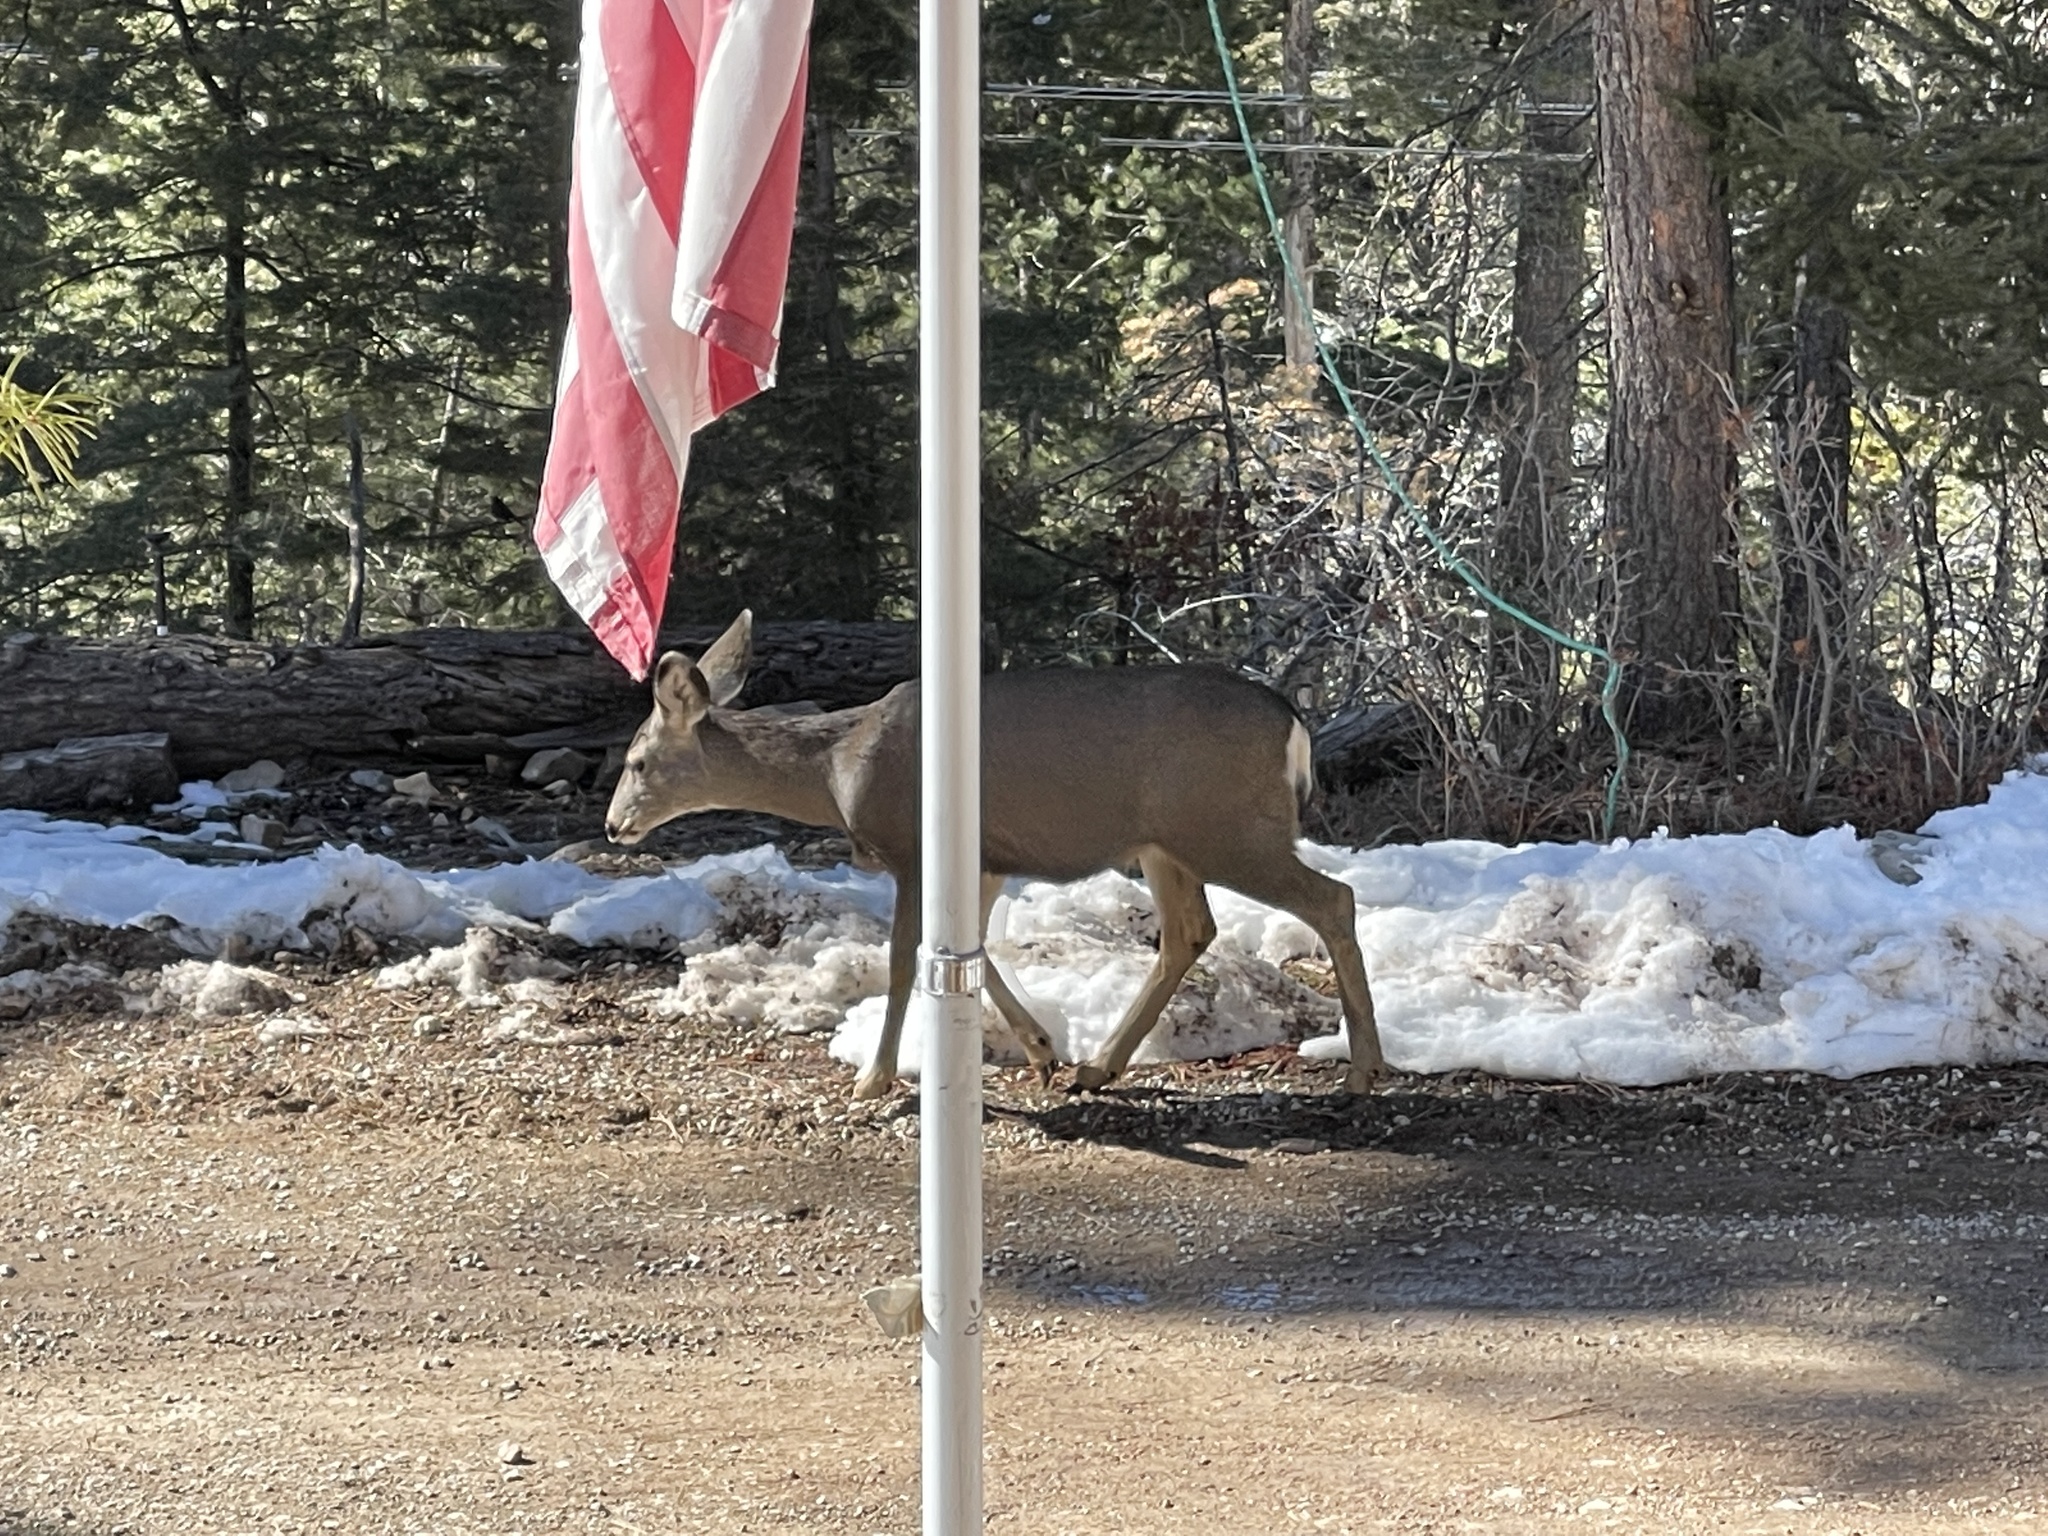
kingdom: Animalia
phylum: Chordata
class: Mammalia
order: Artiodactyla
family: Cervidae
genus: Odocoileus
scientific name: Odocoileus hemionus
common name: Mule deer
